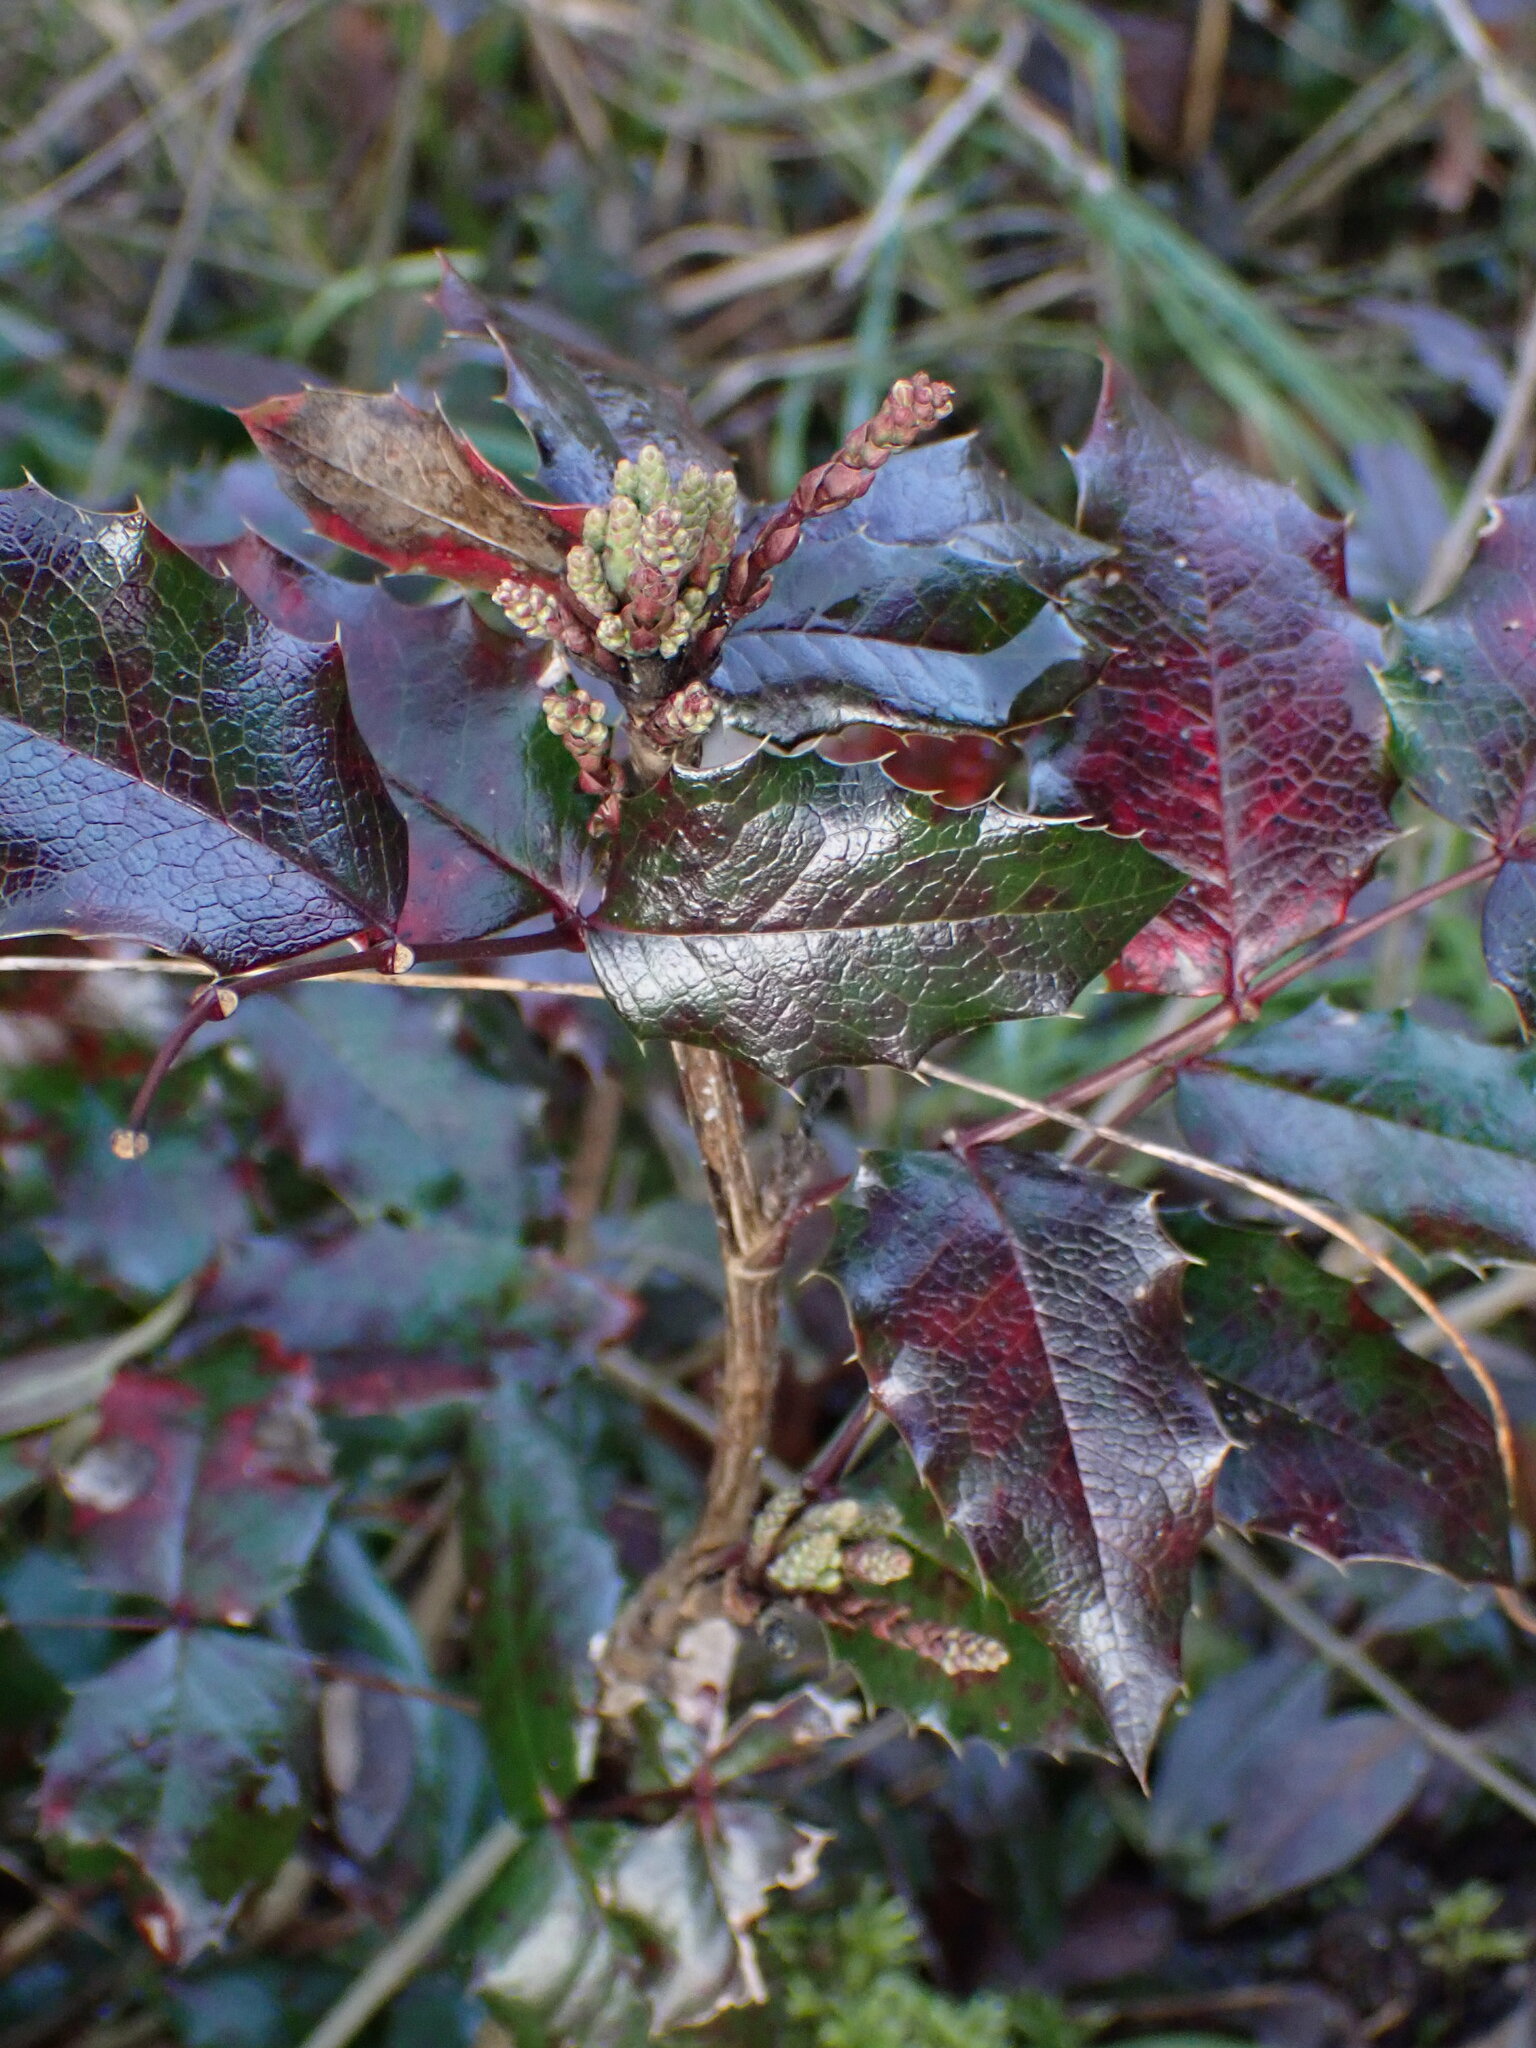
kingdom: Plantae
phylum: Tracheophyta
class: Magnoliopsida
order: Ranunculales
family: Berberidaceae
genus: Mahonia
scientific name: Mahonia aquifolium
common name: Oregon-grape
